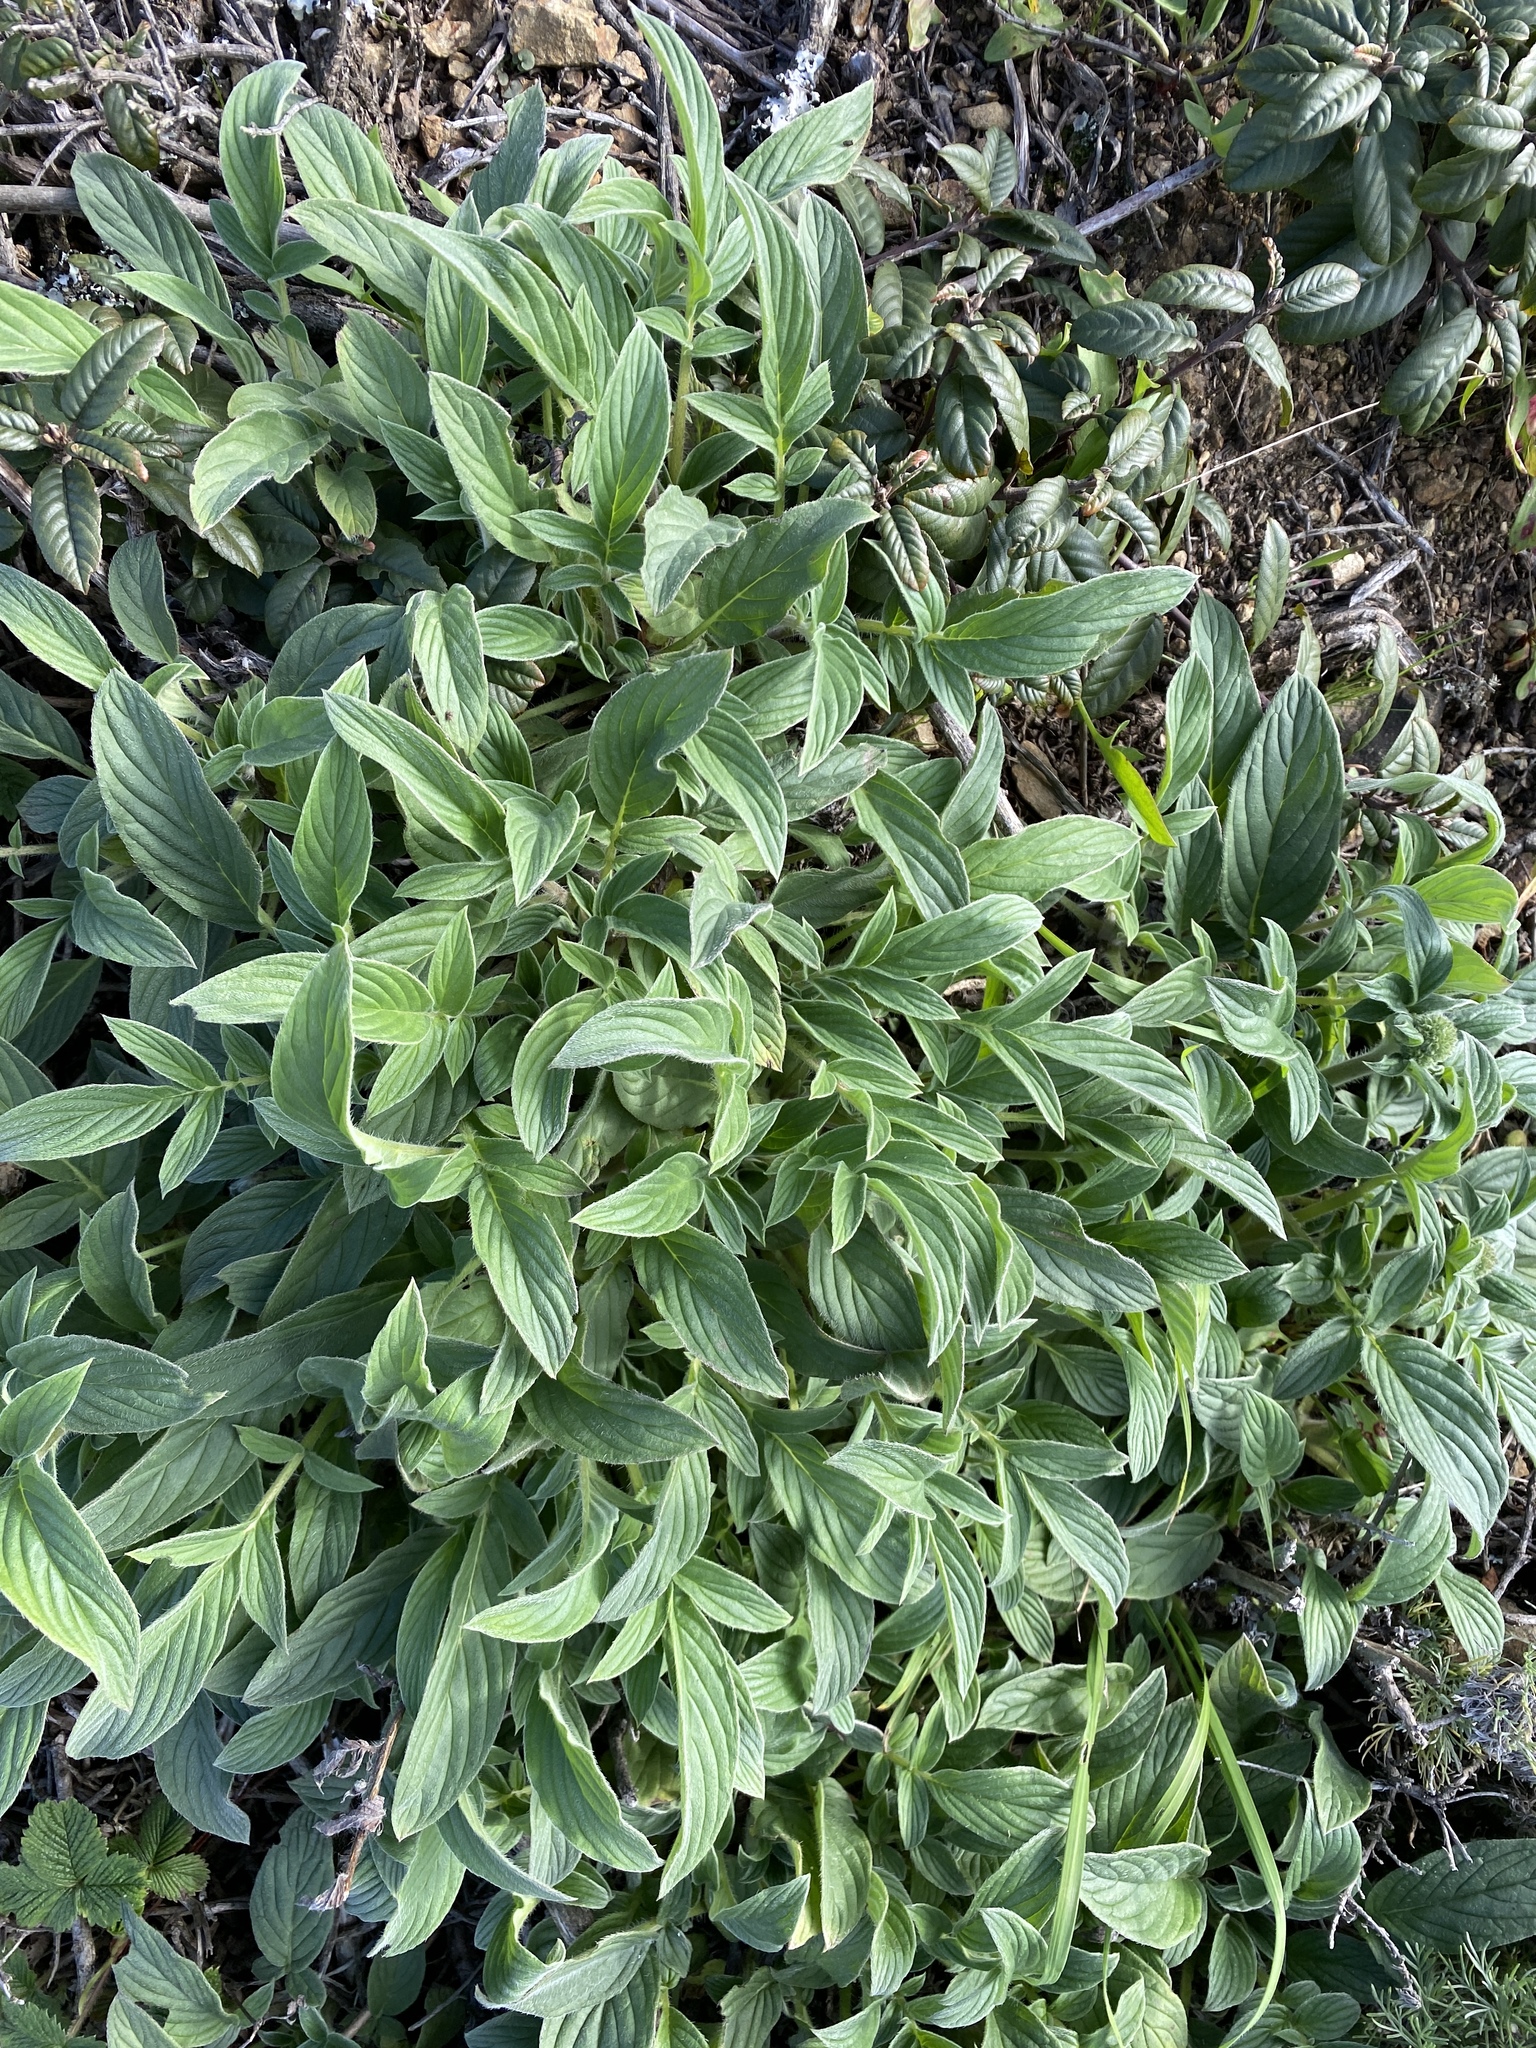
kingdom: Plantae
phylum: Tracheophyta
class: Magnoliopsida
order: Boraginales
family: Hydrophyllaceae
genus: Phacelia
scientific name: Phacelia californica
